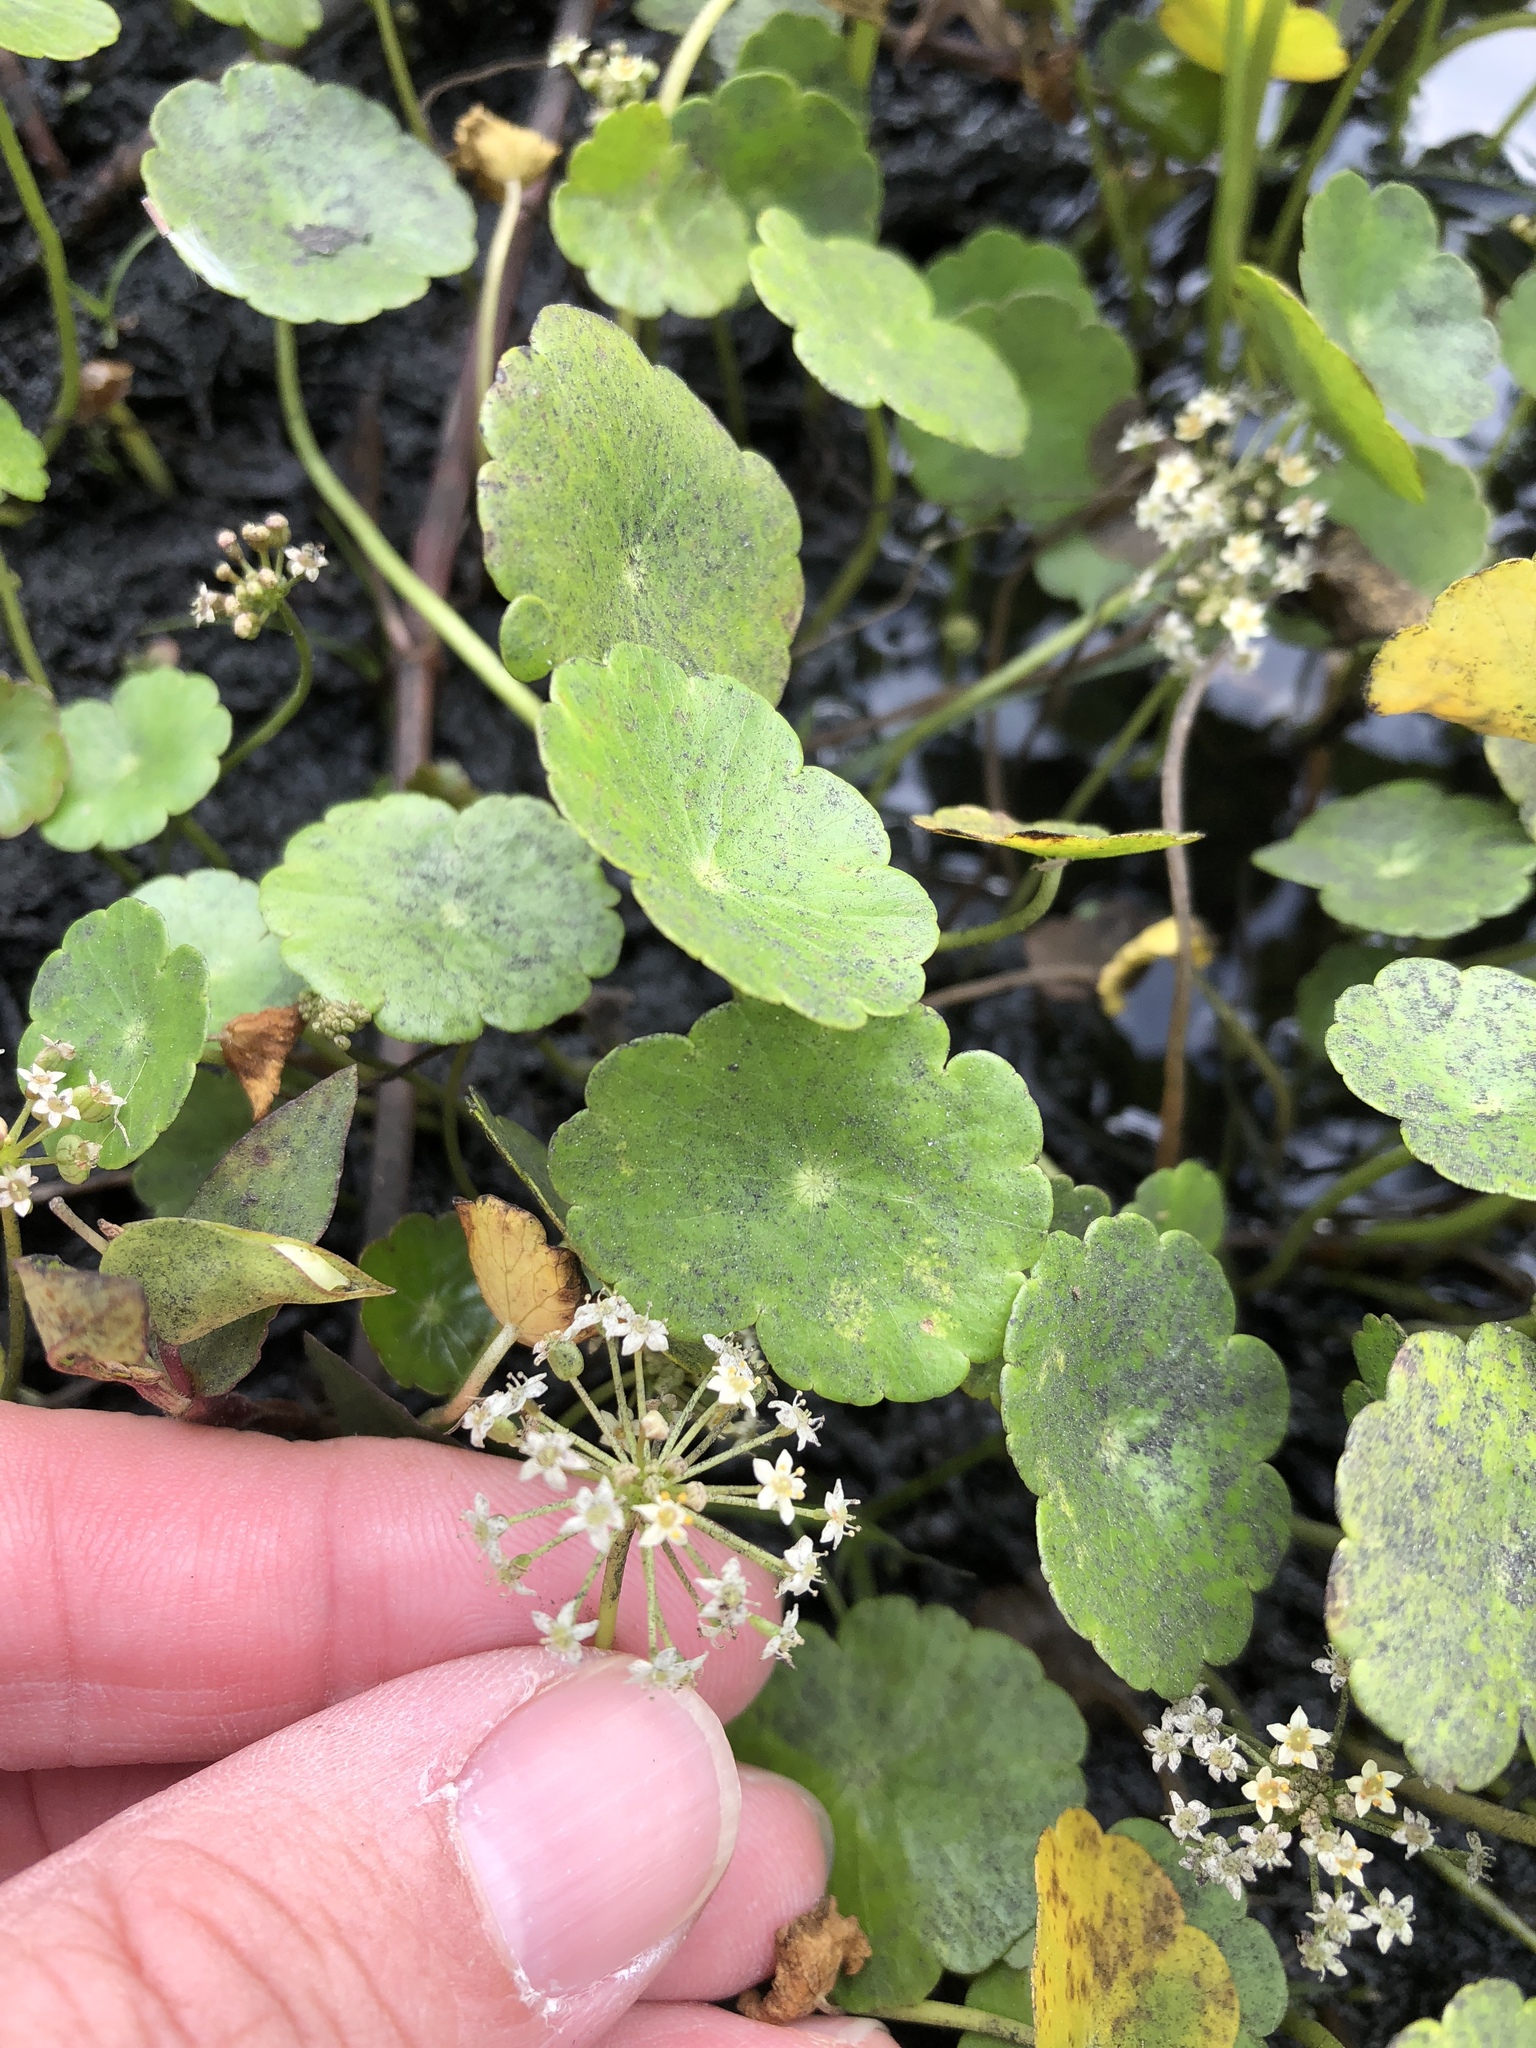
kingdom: Plantae
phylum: Tracheophyta
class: Magnoliopsida
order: Apiales
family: Araliaceae
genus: Hydrocotyle
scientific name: Hydrocotyle umbellata
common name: Water pennywort
